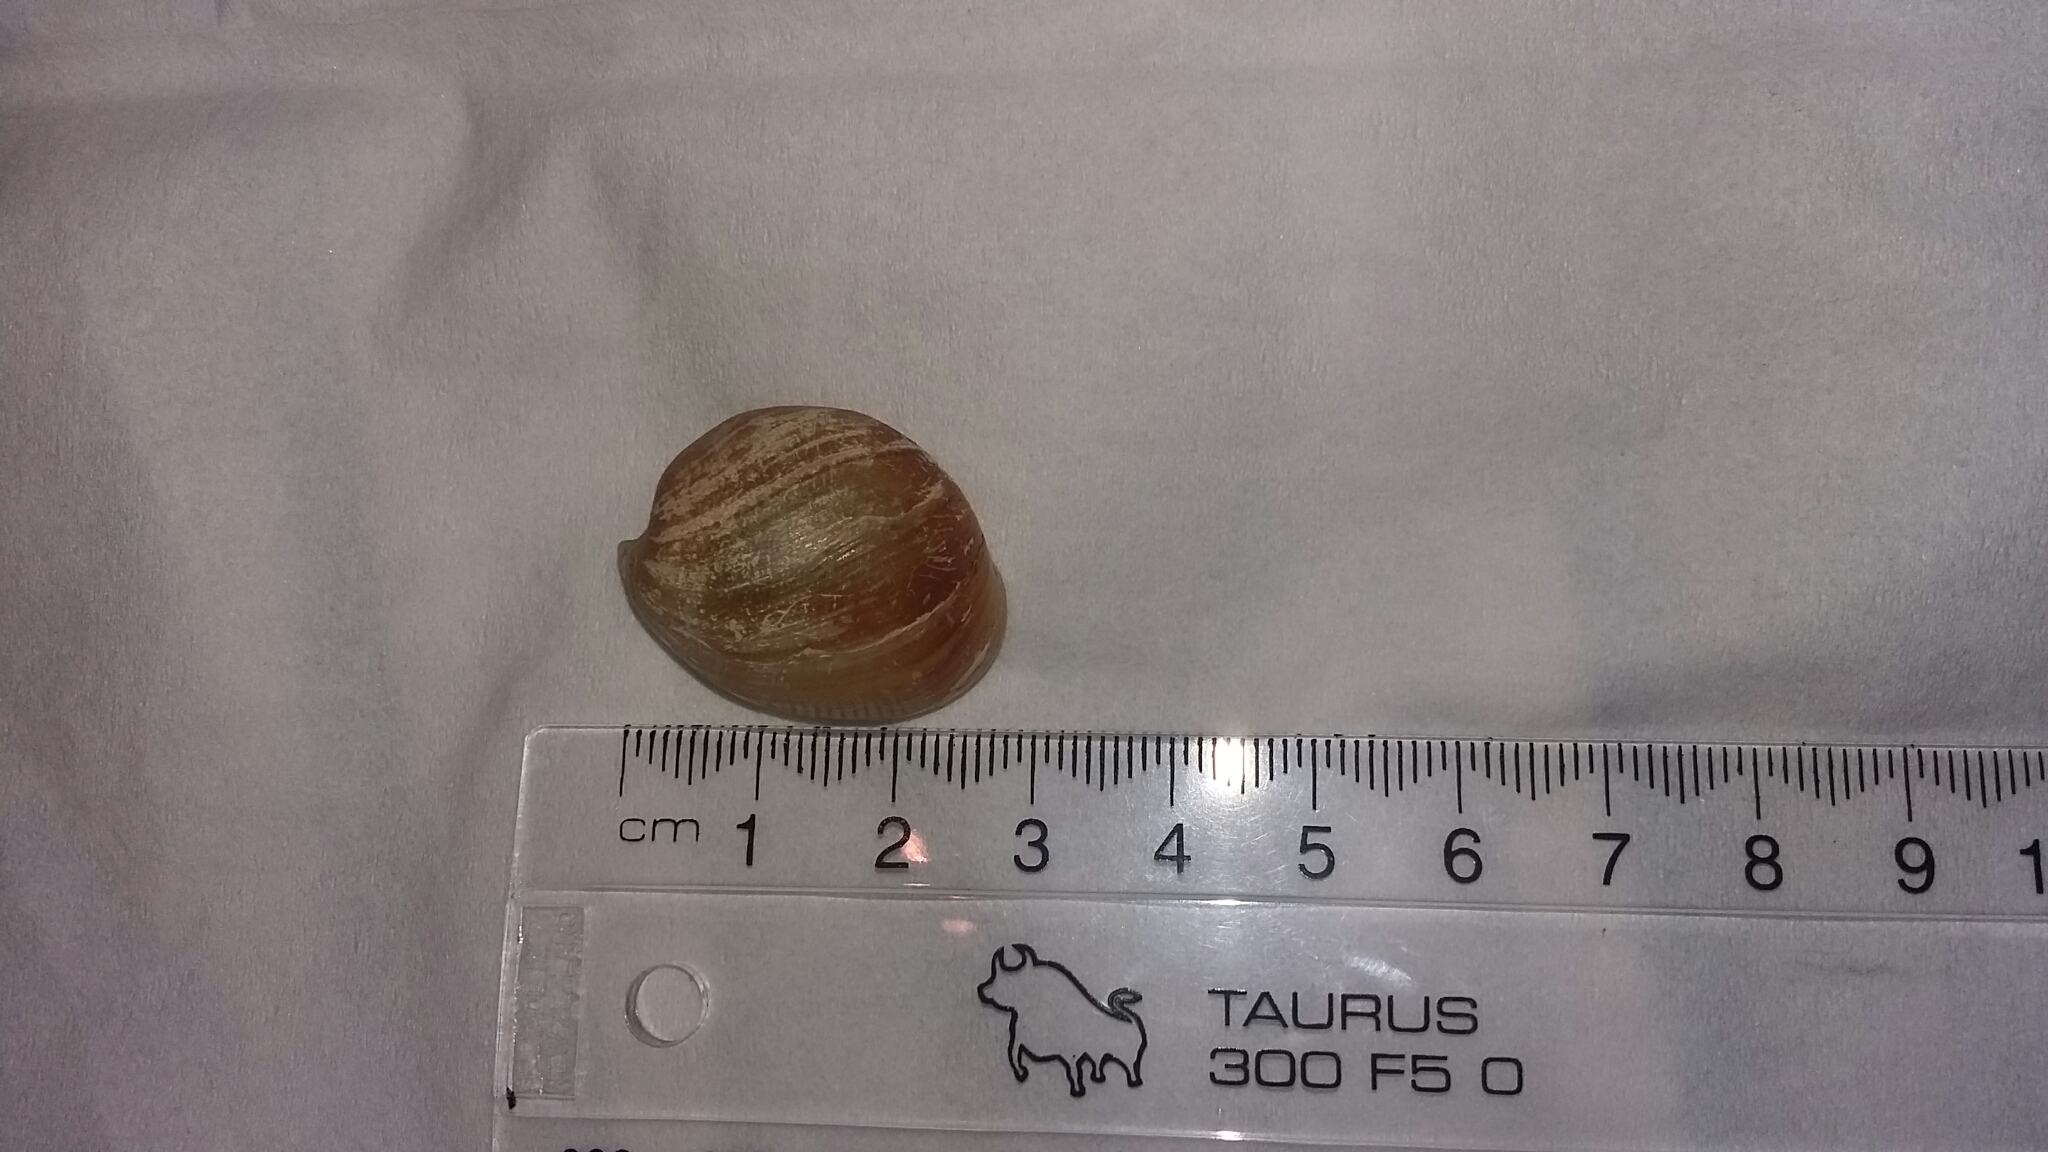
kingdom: Animalia
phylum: Mollusca
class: Gastropoda
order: Cephalaspidea
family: Haminoeidae
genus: Papawera
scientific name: Papawera zelandiae
